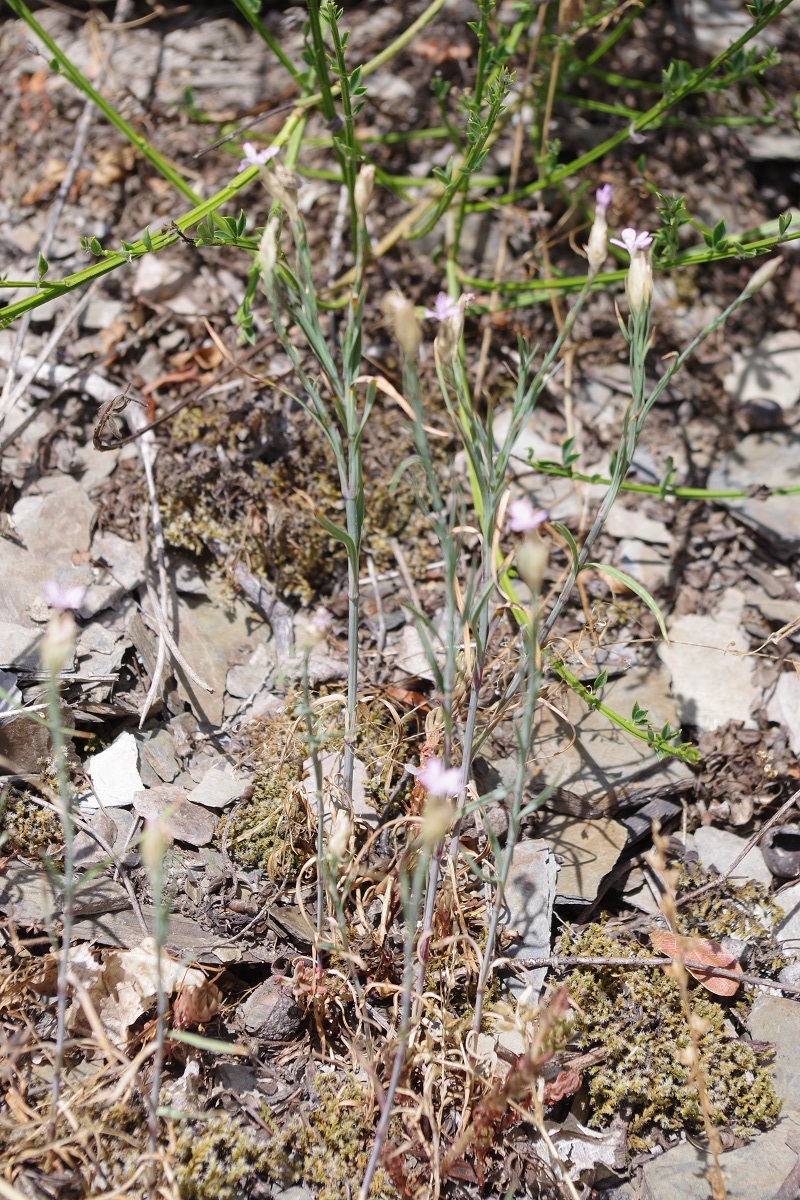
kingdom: Plantae
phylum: Tracheophyta
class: Magnoliopsida
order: Caryophyllales
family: Caryophyllaceae
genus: Petrorhagia
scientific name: Petrorhagia prolifera
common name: Proliferous pink
